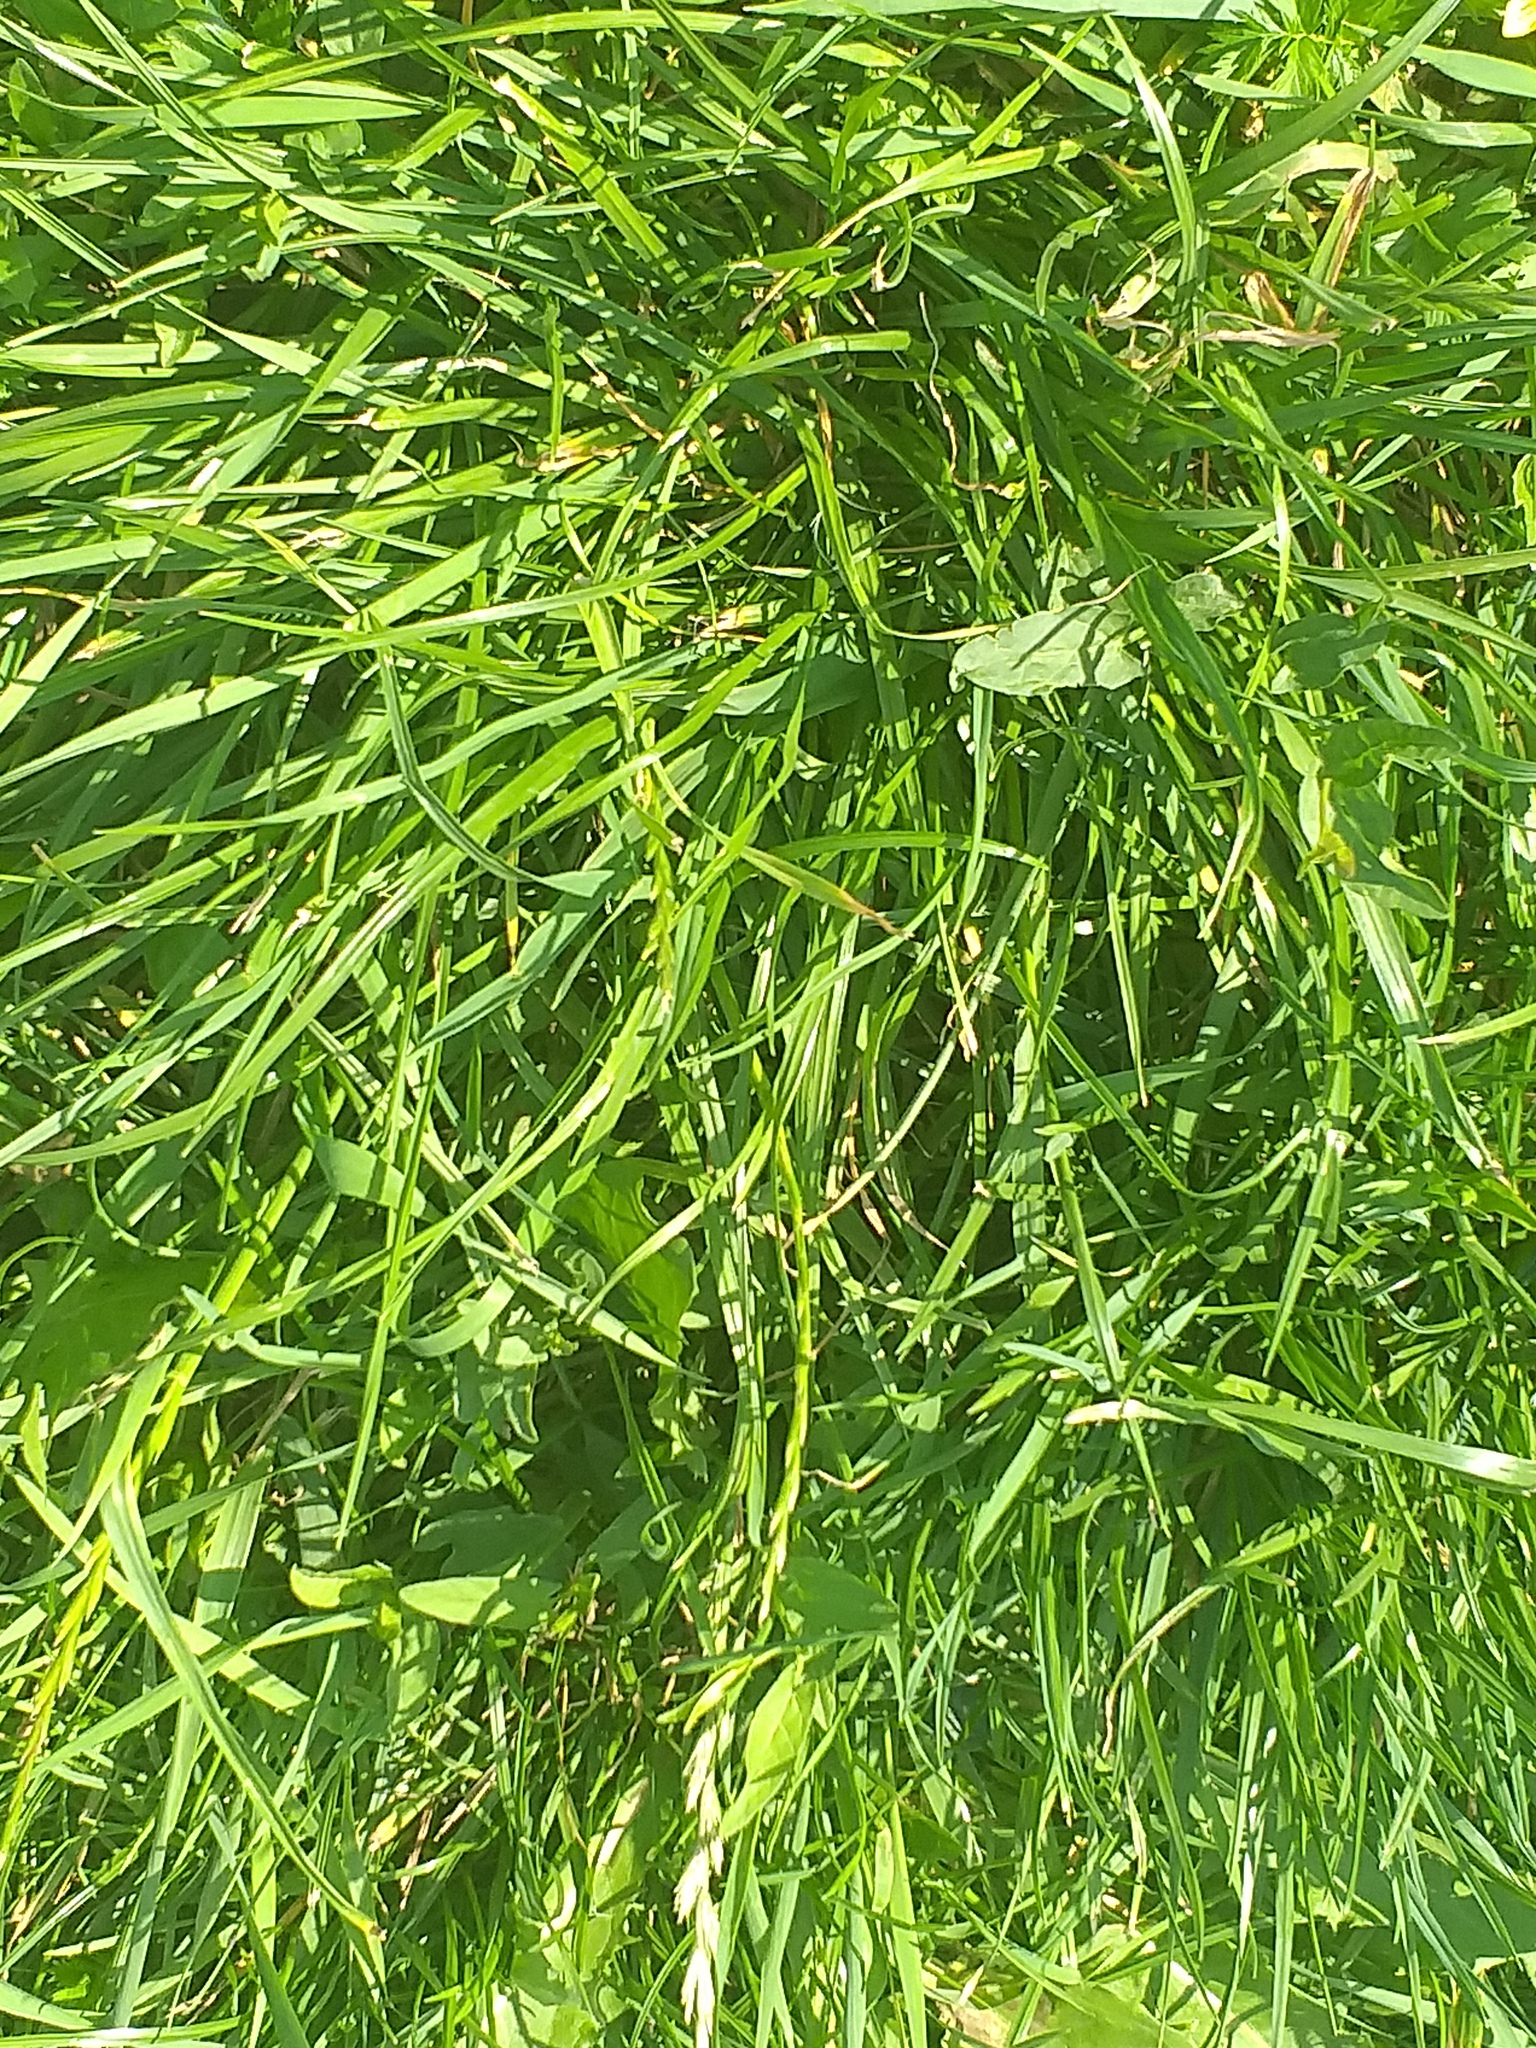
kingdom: Plantae
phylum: Tracheophyta
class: Liliopsida
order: Poales
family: Poaceae
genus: Lolium
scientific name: Lolium perenne
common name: Perennial ryegrass
